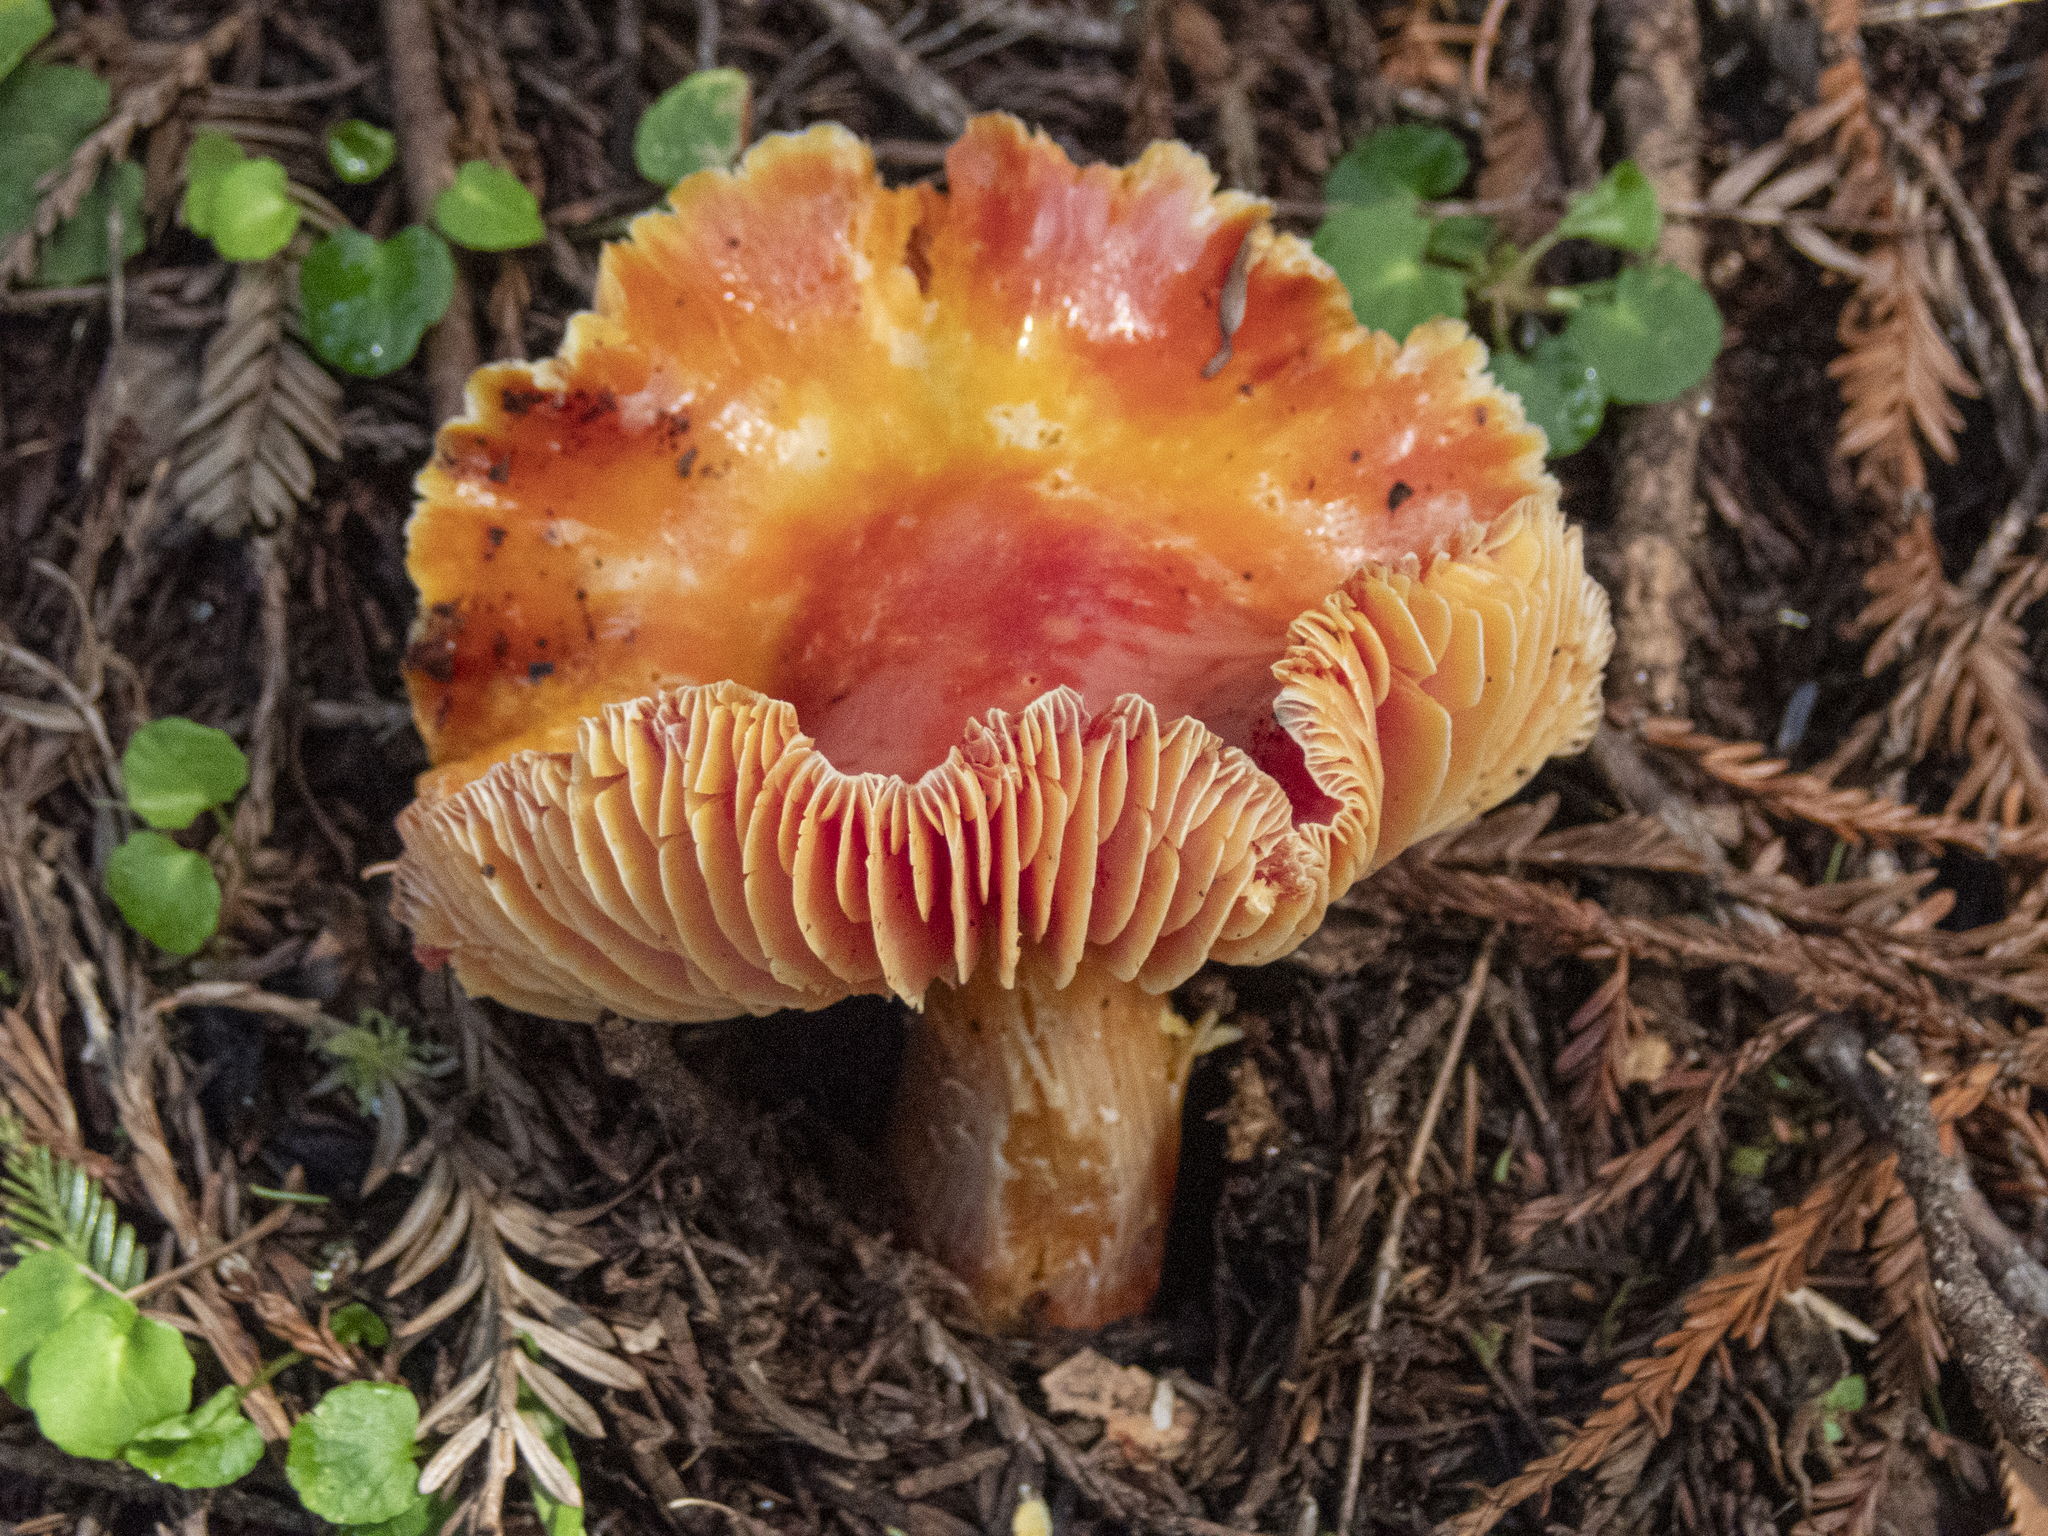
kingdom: Fungi
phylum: Basidiomycota
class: Agaricomycetes
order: Agaricales
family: Hygrophoraceae
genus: Hygrocybe
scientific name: Hygrocybe laetissima
